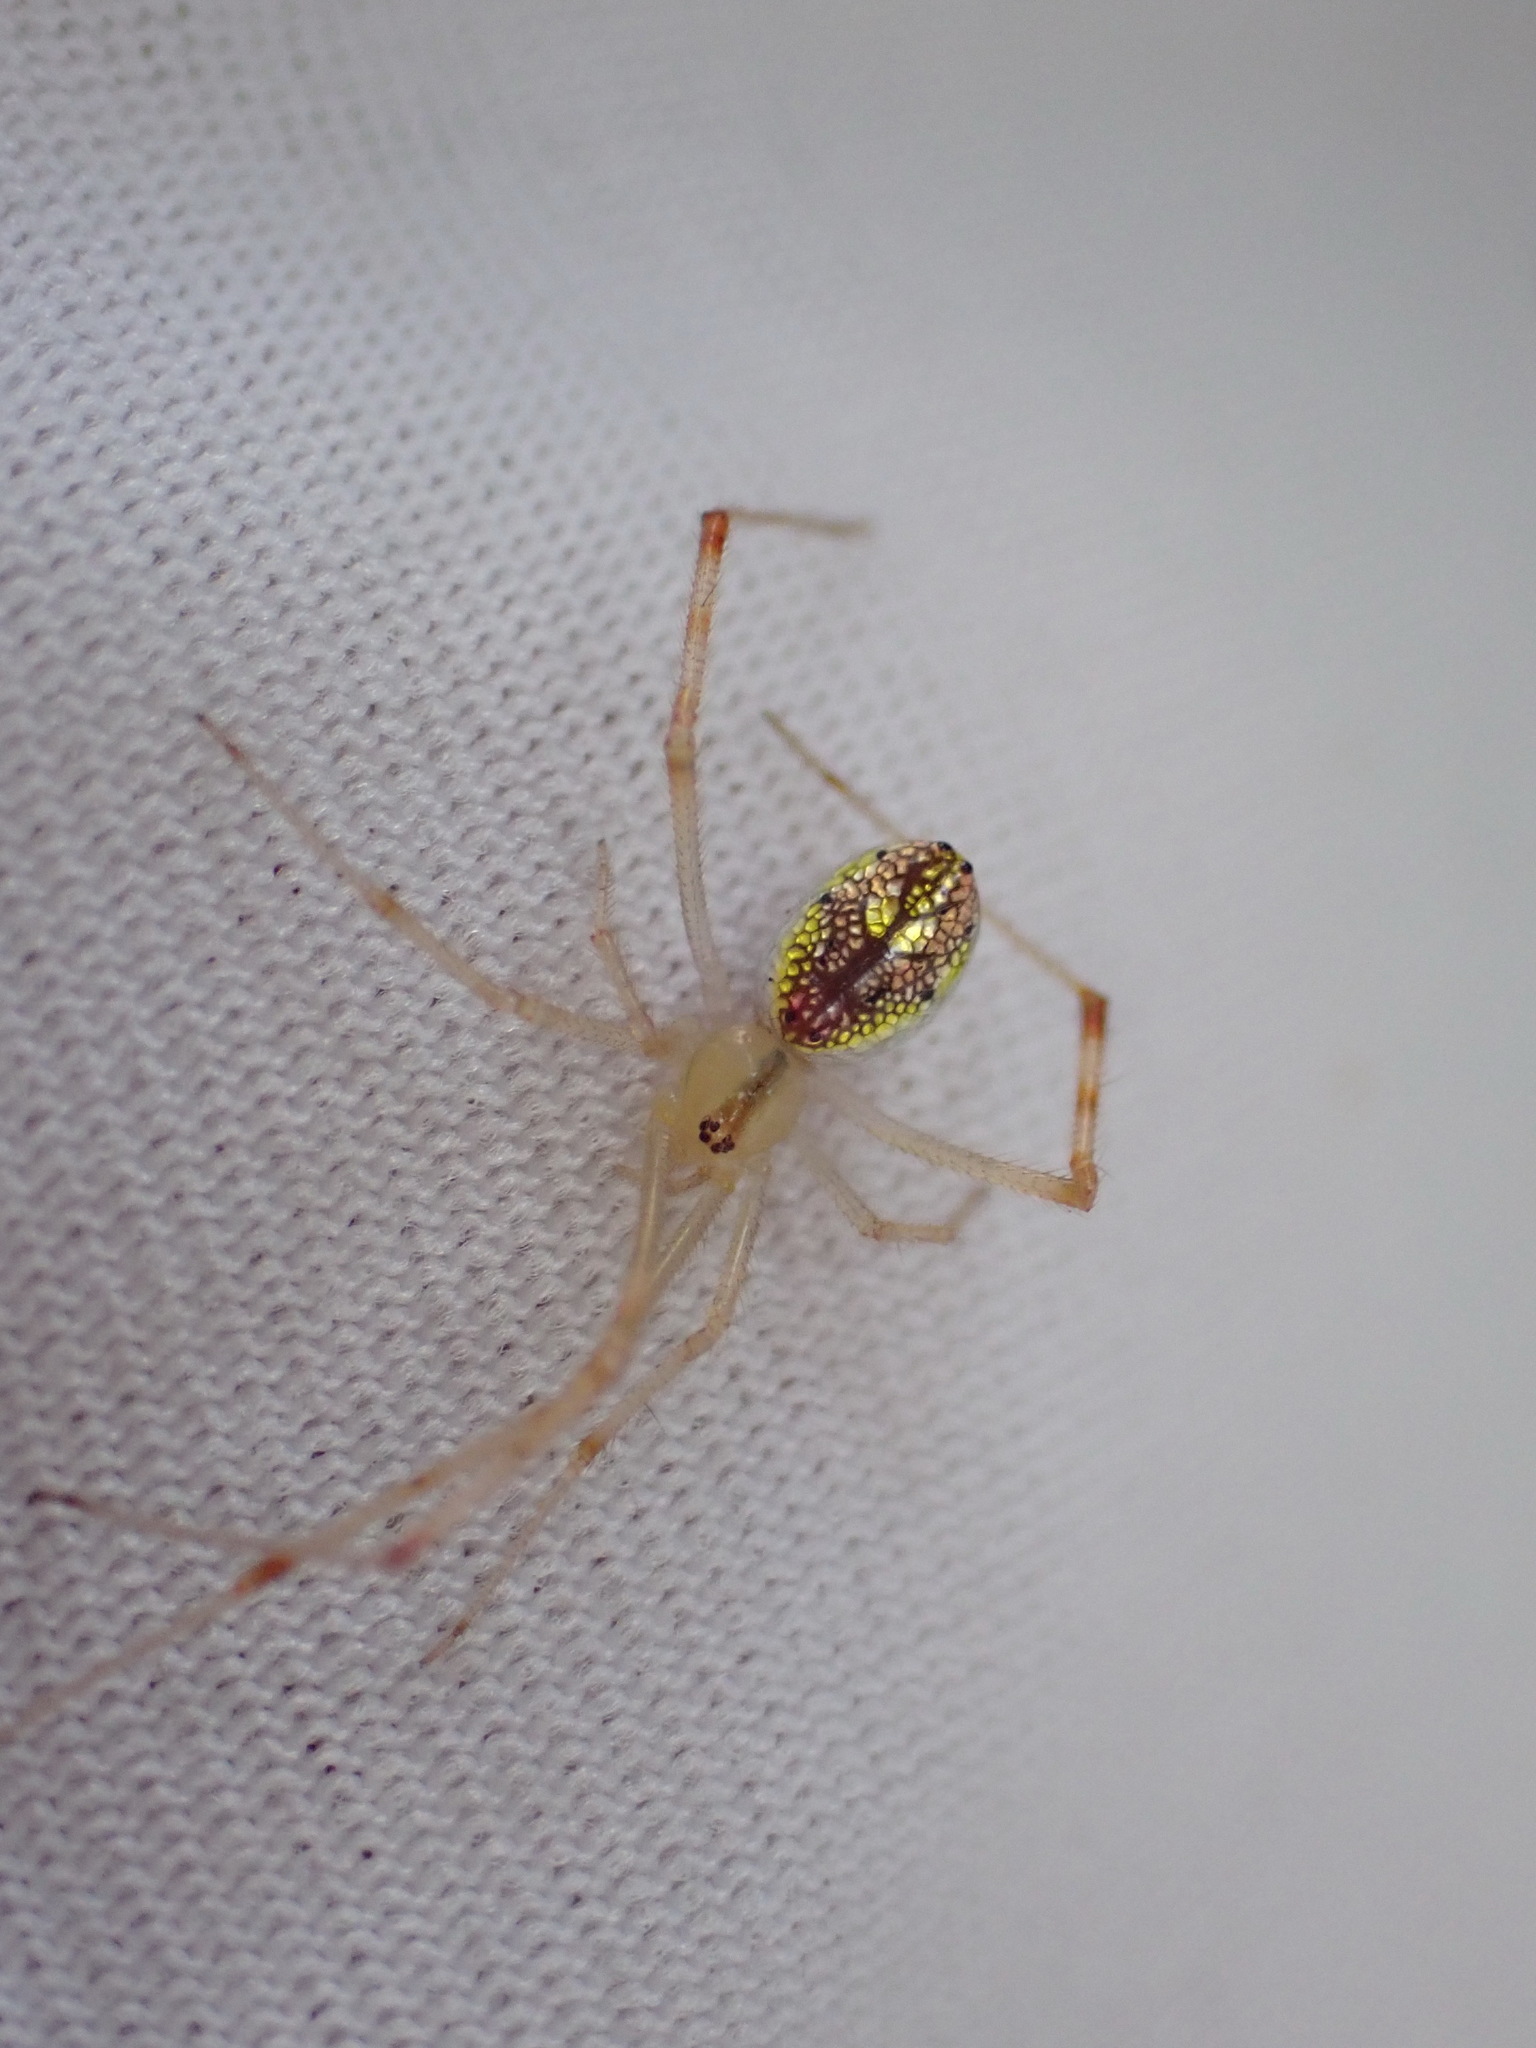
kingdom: Animalia
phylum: Arthropoda
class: Arachnida
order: Araneae
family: Theridiidae
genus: Thwaitesia
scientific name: Thwaitesia nigronodosa
